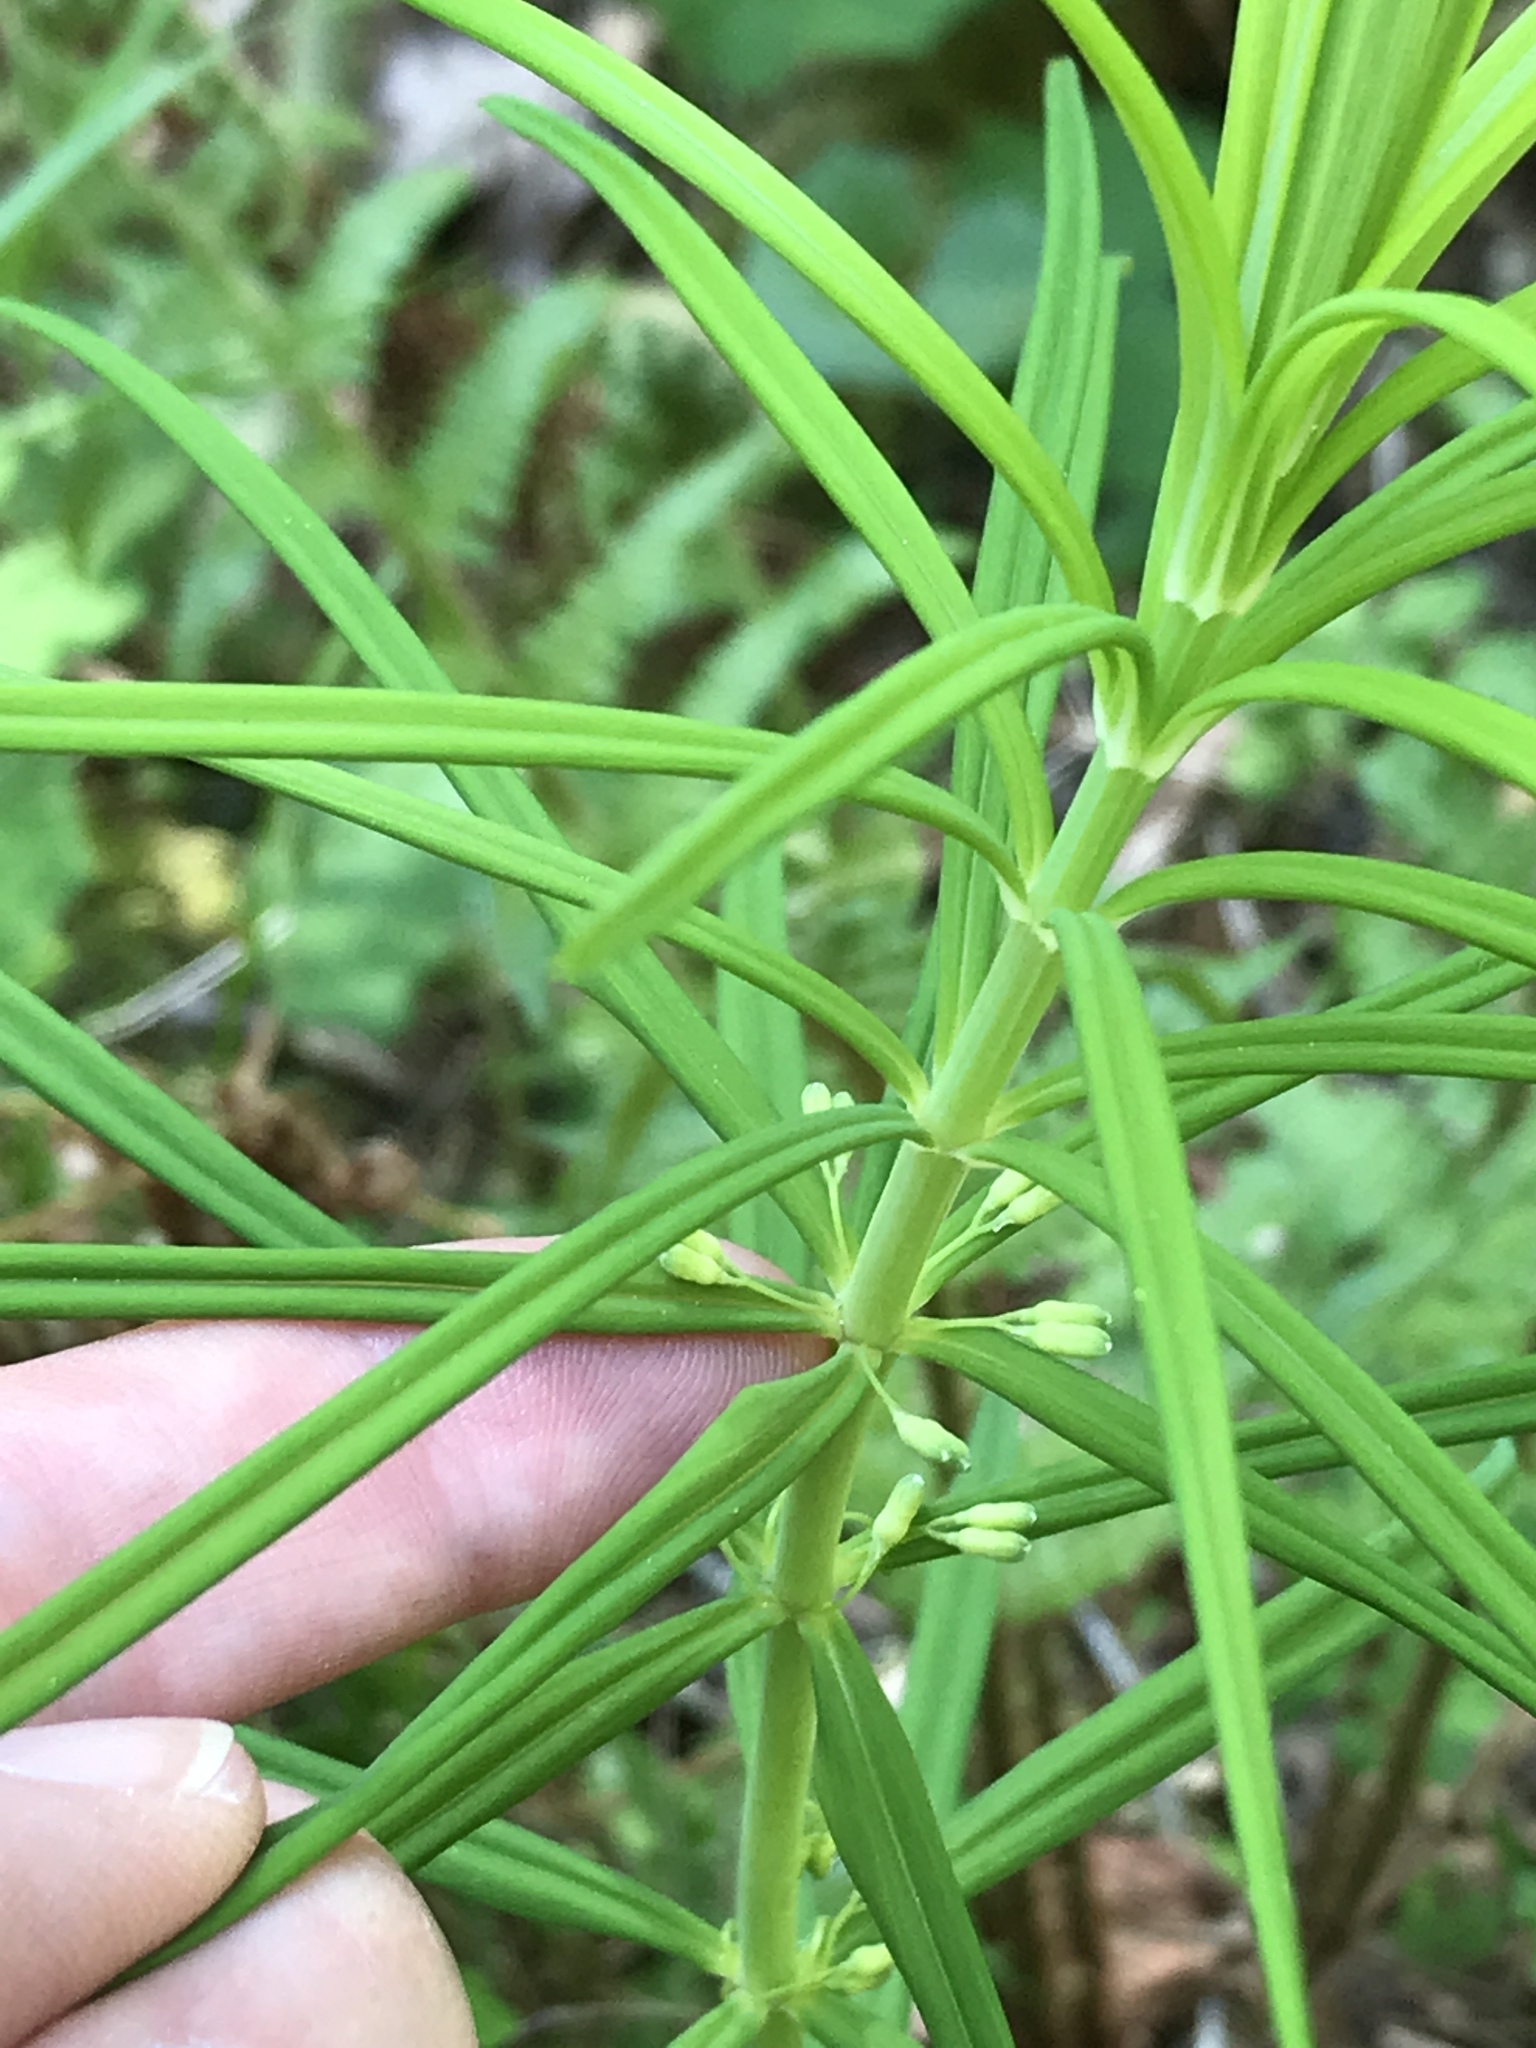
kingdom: Plantae
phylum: Tracheophyta
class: Liliopsida
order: Asparagales
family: Asparagaceae
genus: Polygonatum
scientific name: Polygonatum verticillatum
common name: Whorled solomon's-seal
